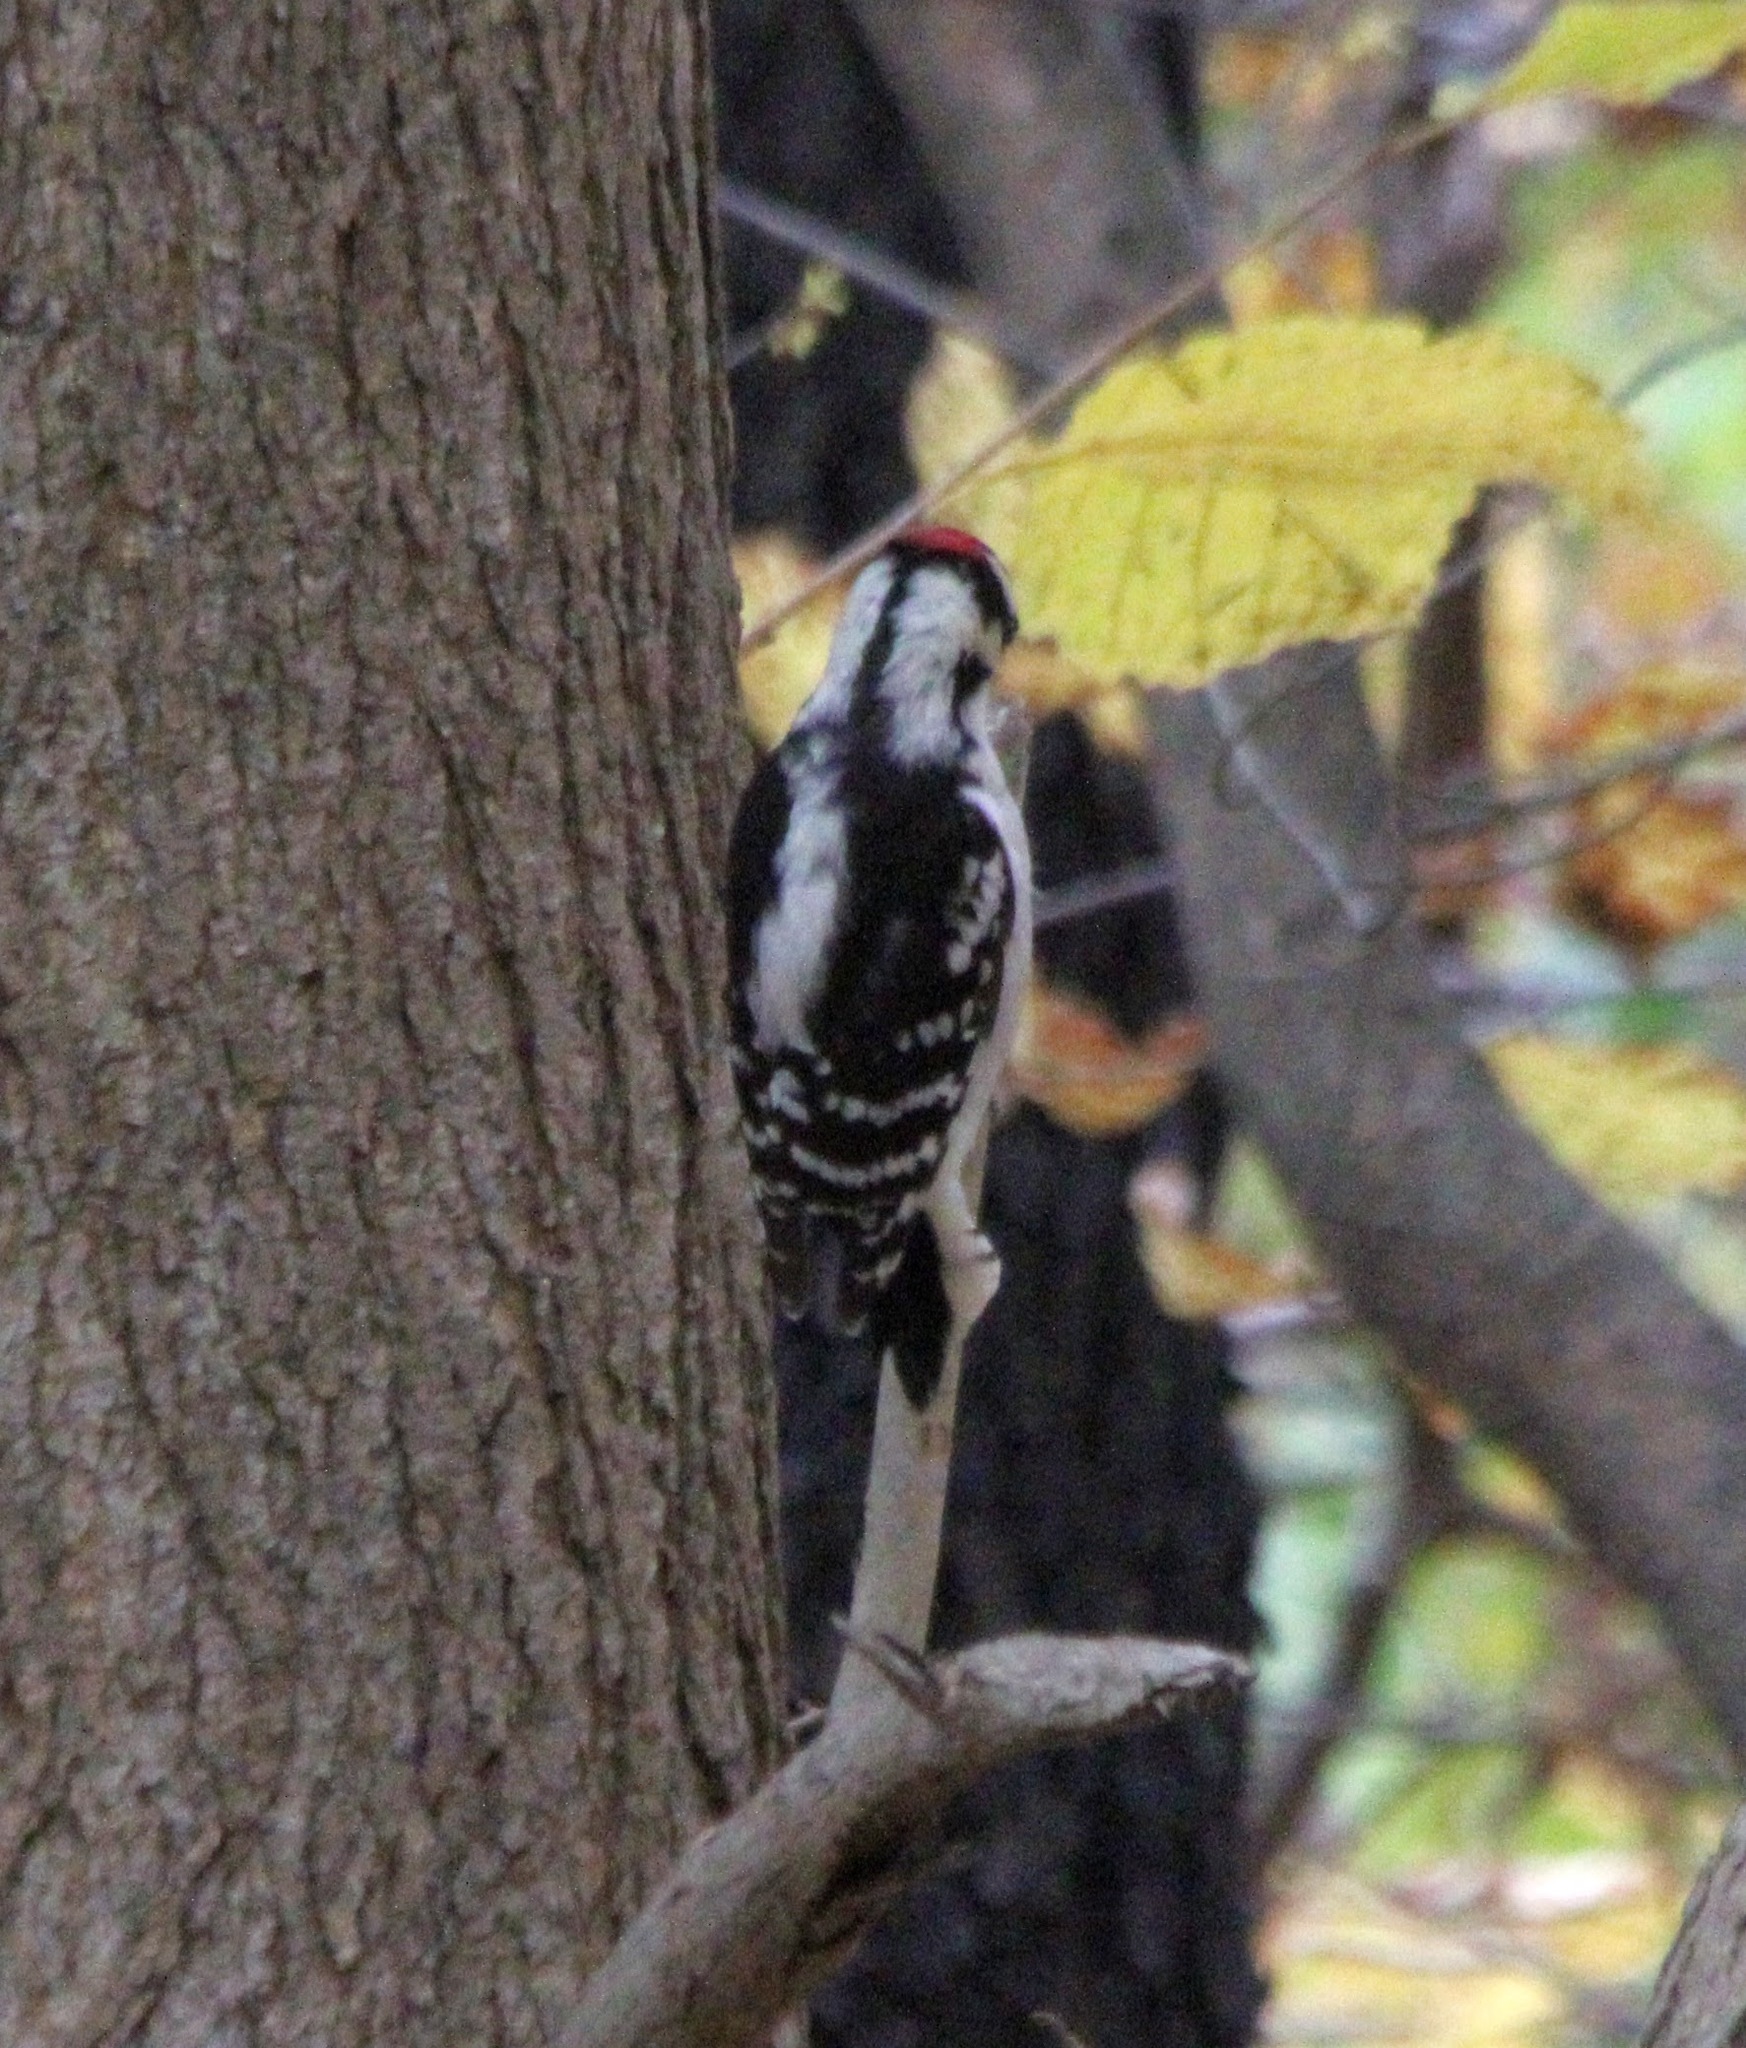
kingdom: Animalia
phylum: Chordata
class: Aves
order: Piciformes
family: Picidae
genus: Dryobates
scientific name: Dryobates pubescens
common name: Downy woodpecker
